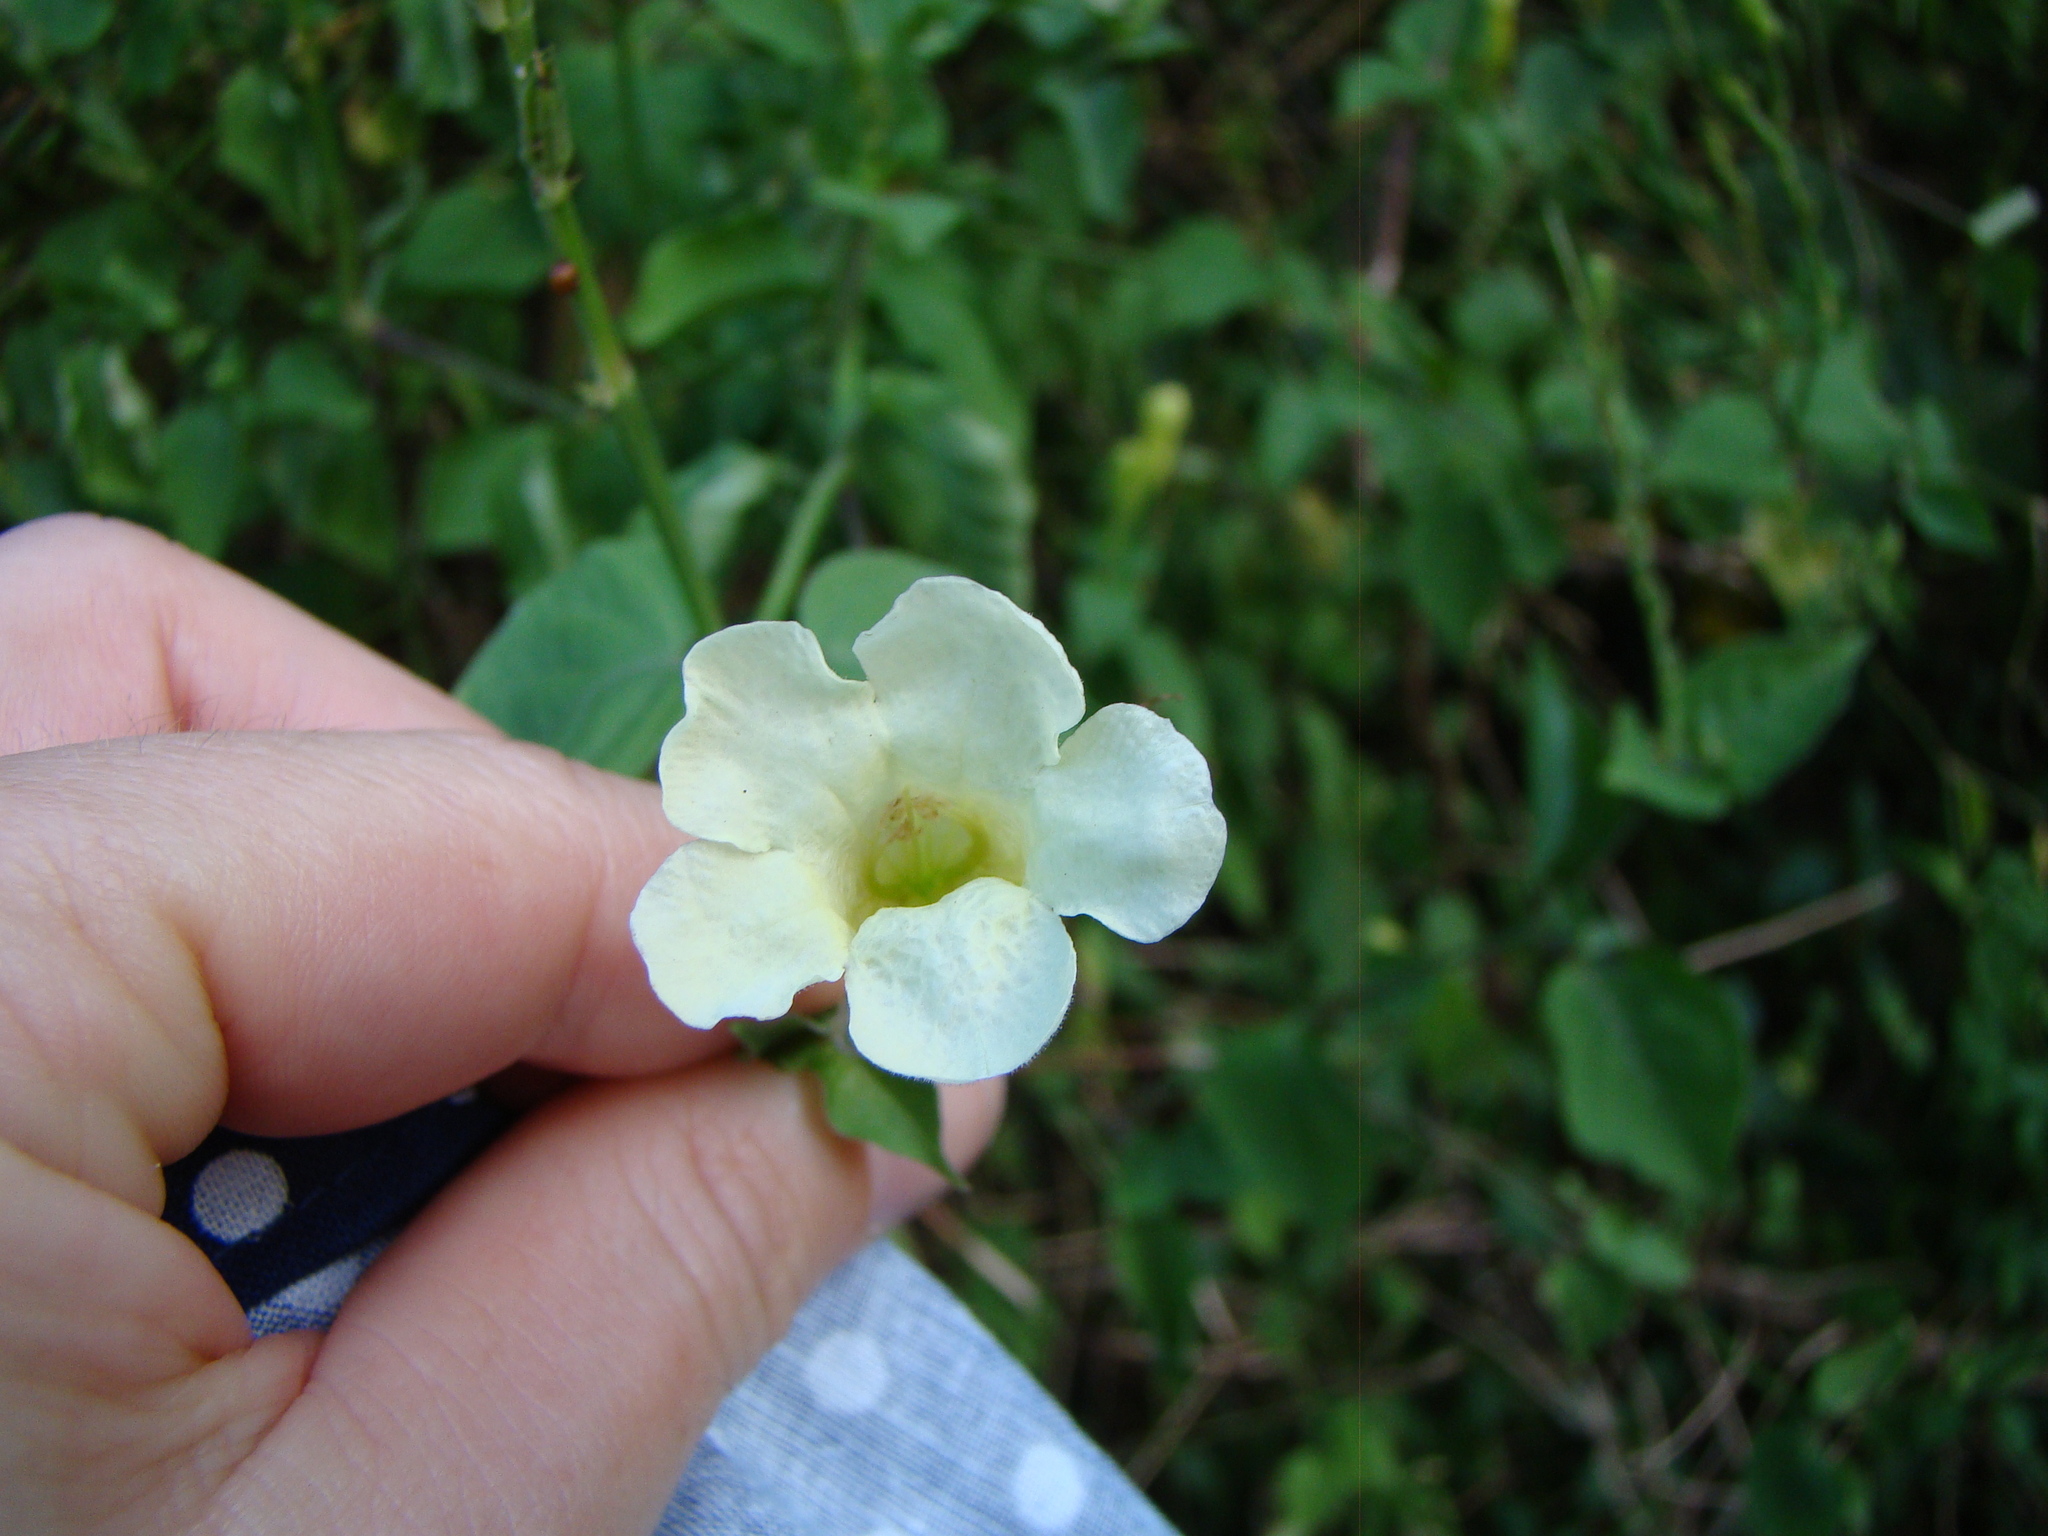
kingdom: Plantae
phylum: Tracheophyta
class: Magnoliopsida
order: Lamiales
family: Acanthaceae
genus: Asystasia
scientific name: Asystasia gangetica
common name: Chinese violet
